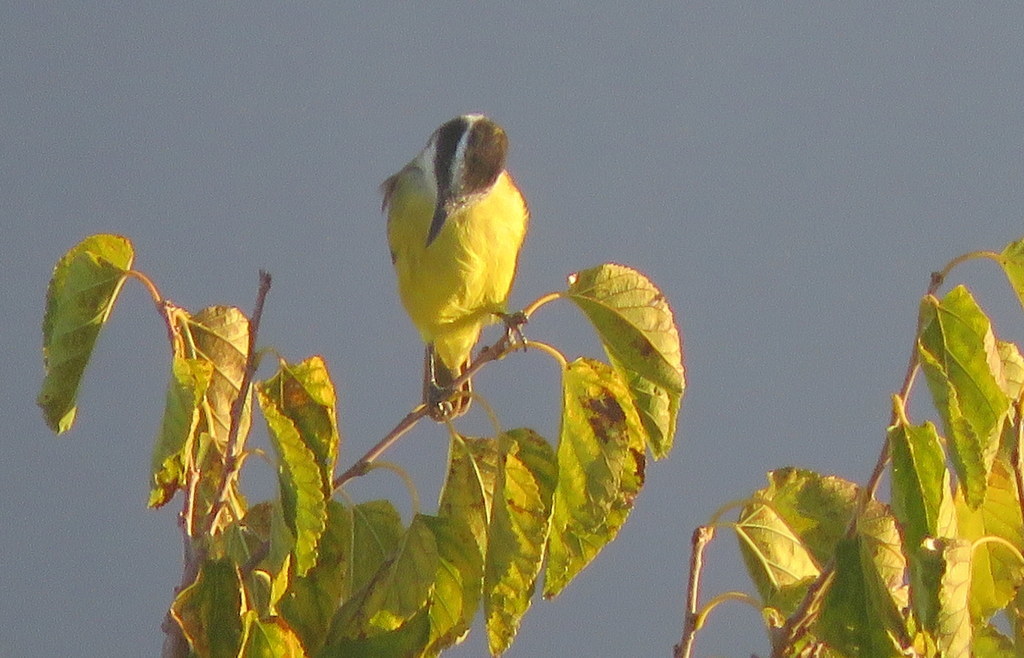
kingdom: Animalia
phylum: Chordata
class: Aves
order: Passeriformes
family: Tyrannidae
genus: Pitangus
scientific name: Pitangus sulphuratus
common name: Great kiskadee
